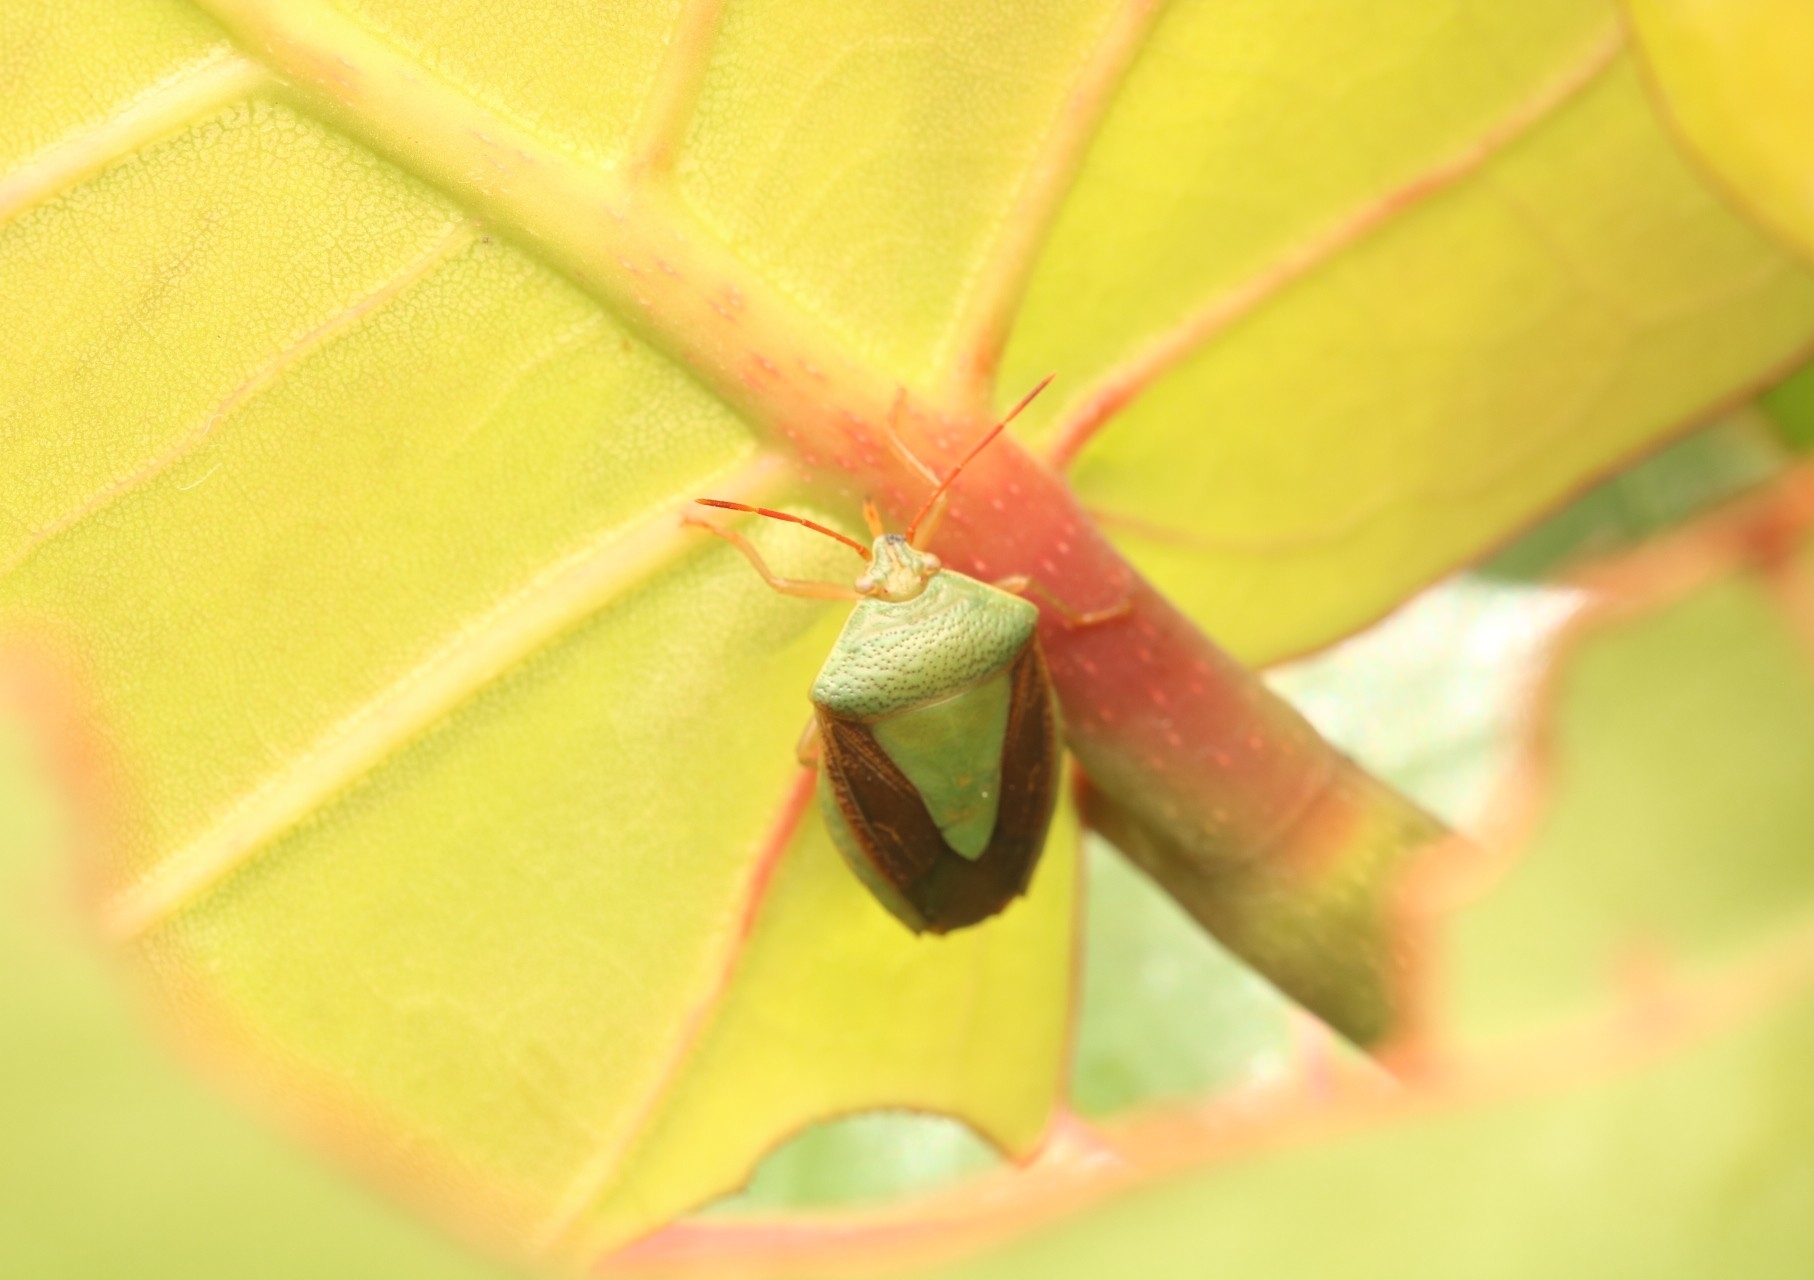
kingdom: Animalia
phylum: Arthropoda
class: Insecta
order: Hemiptera
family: Pentatomidae
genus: Edessa
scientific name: Edessa meditabunda
